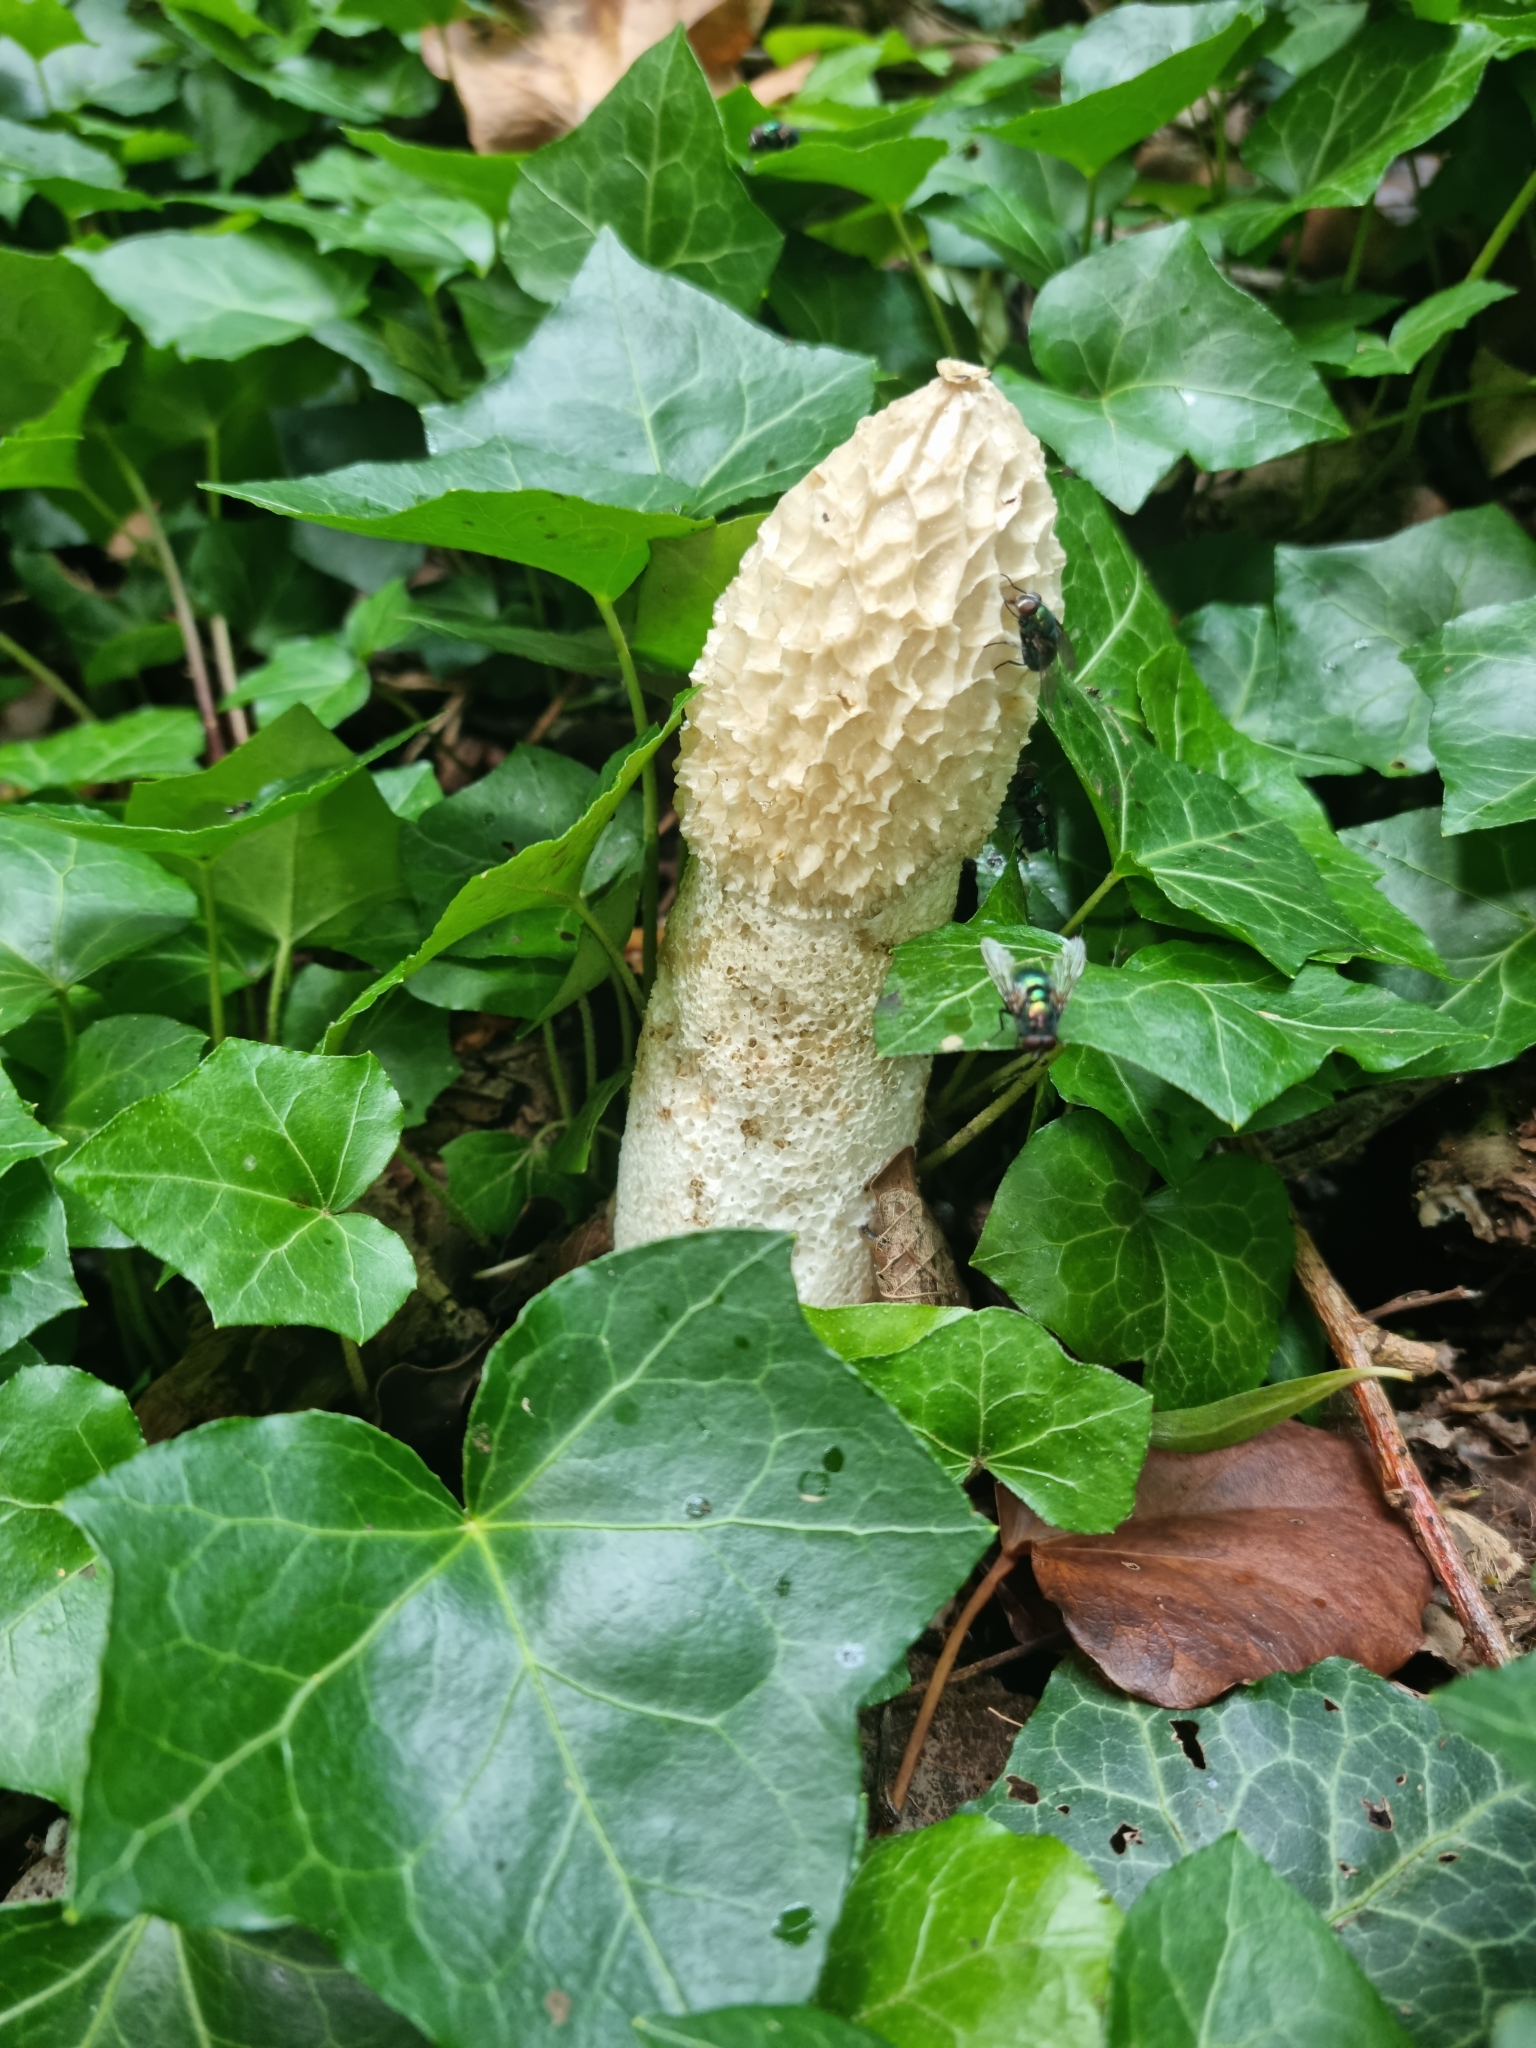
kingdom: Fungi
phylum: Basidiomycota
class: Agaricomycetes
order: Phallales
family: Phallaceae
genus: Phallus
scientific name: Phallus impudicus
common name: Common stinkhorn
